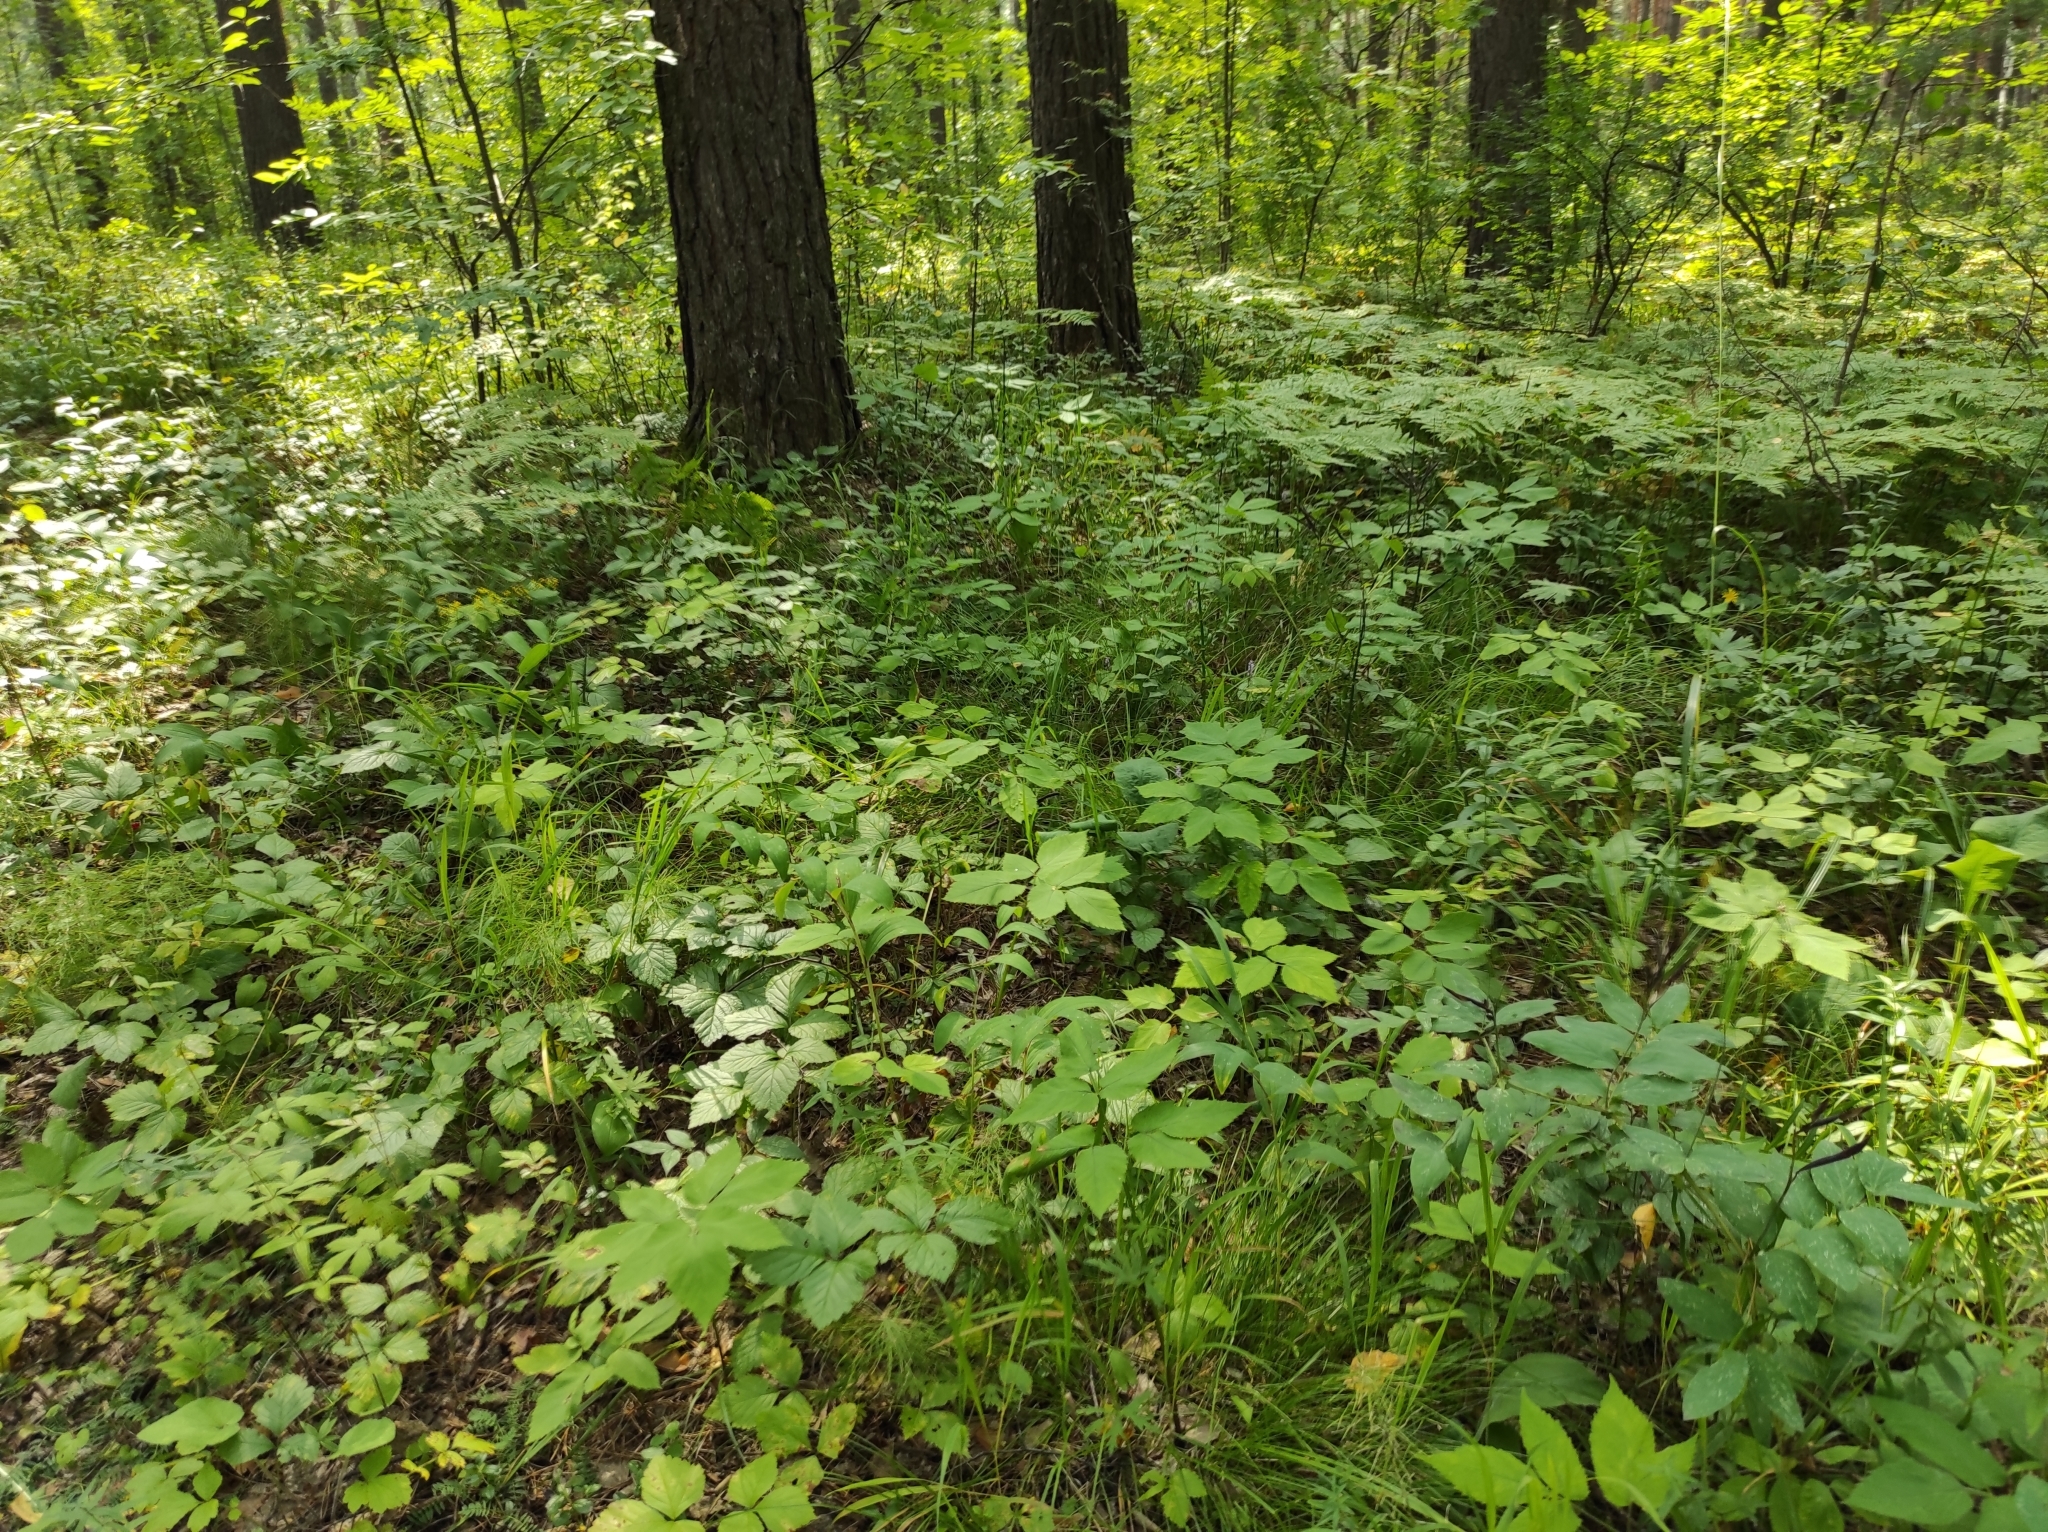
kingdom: Plantae
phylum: Tracheophyta
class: Liliopsida
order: Asparagales
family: Orchidaceae
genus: Hemipilia
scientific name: Hemipilia cucullata
